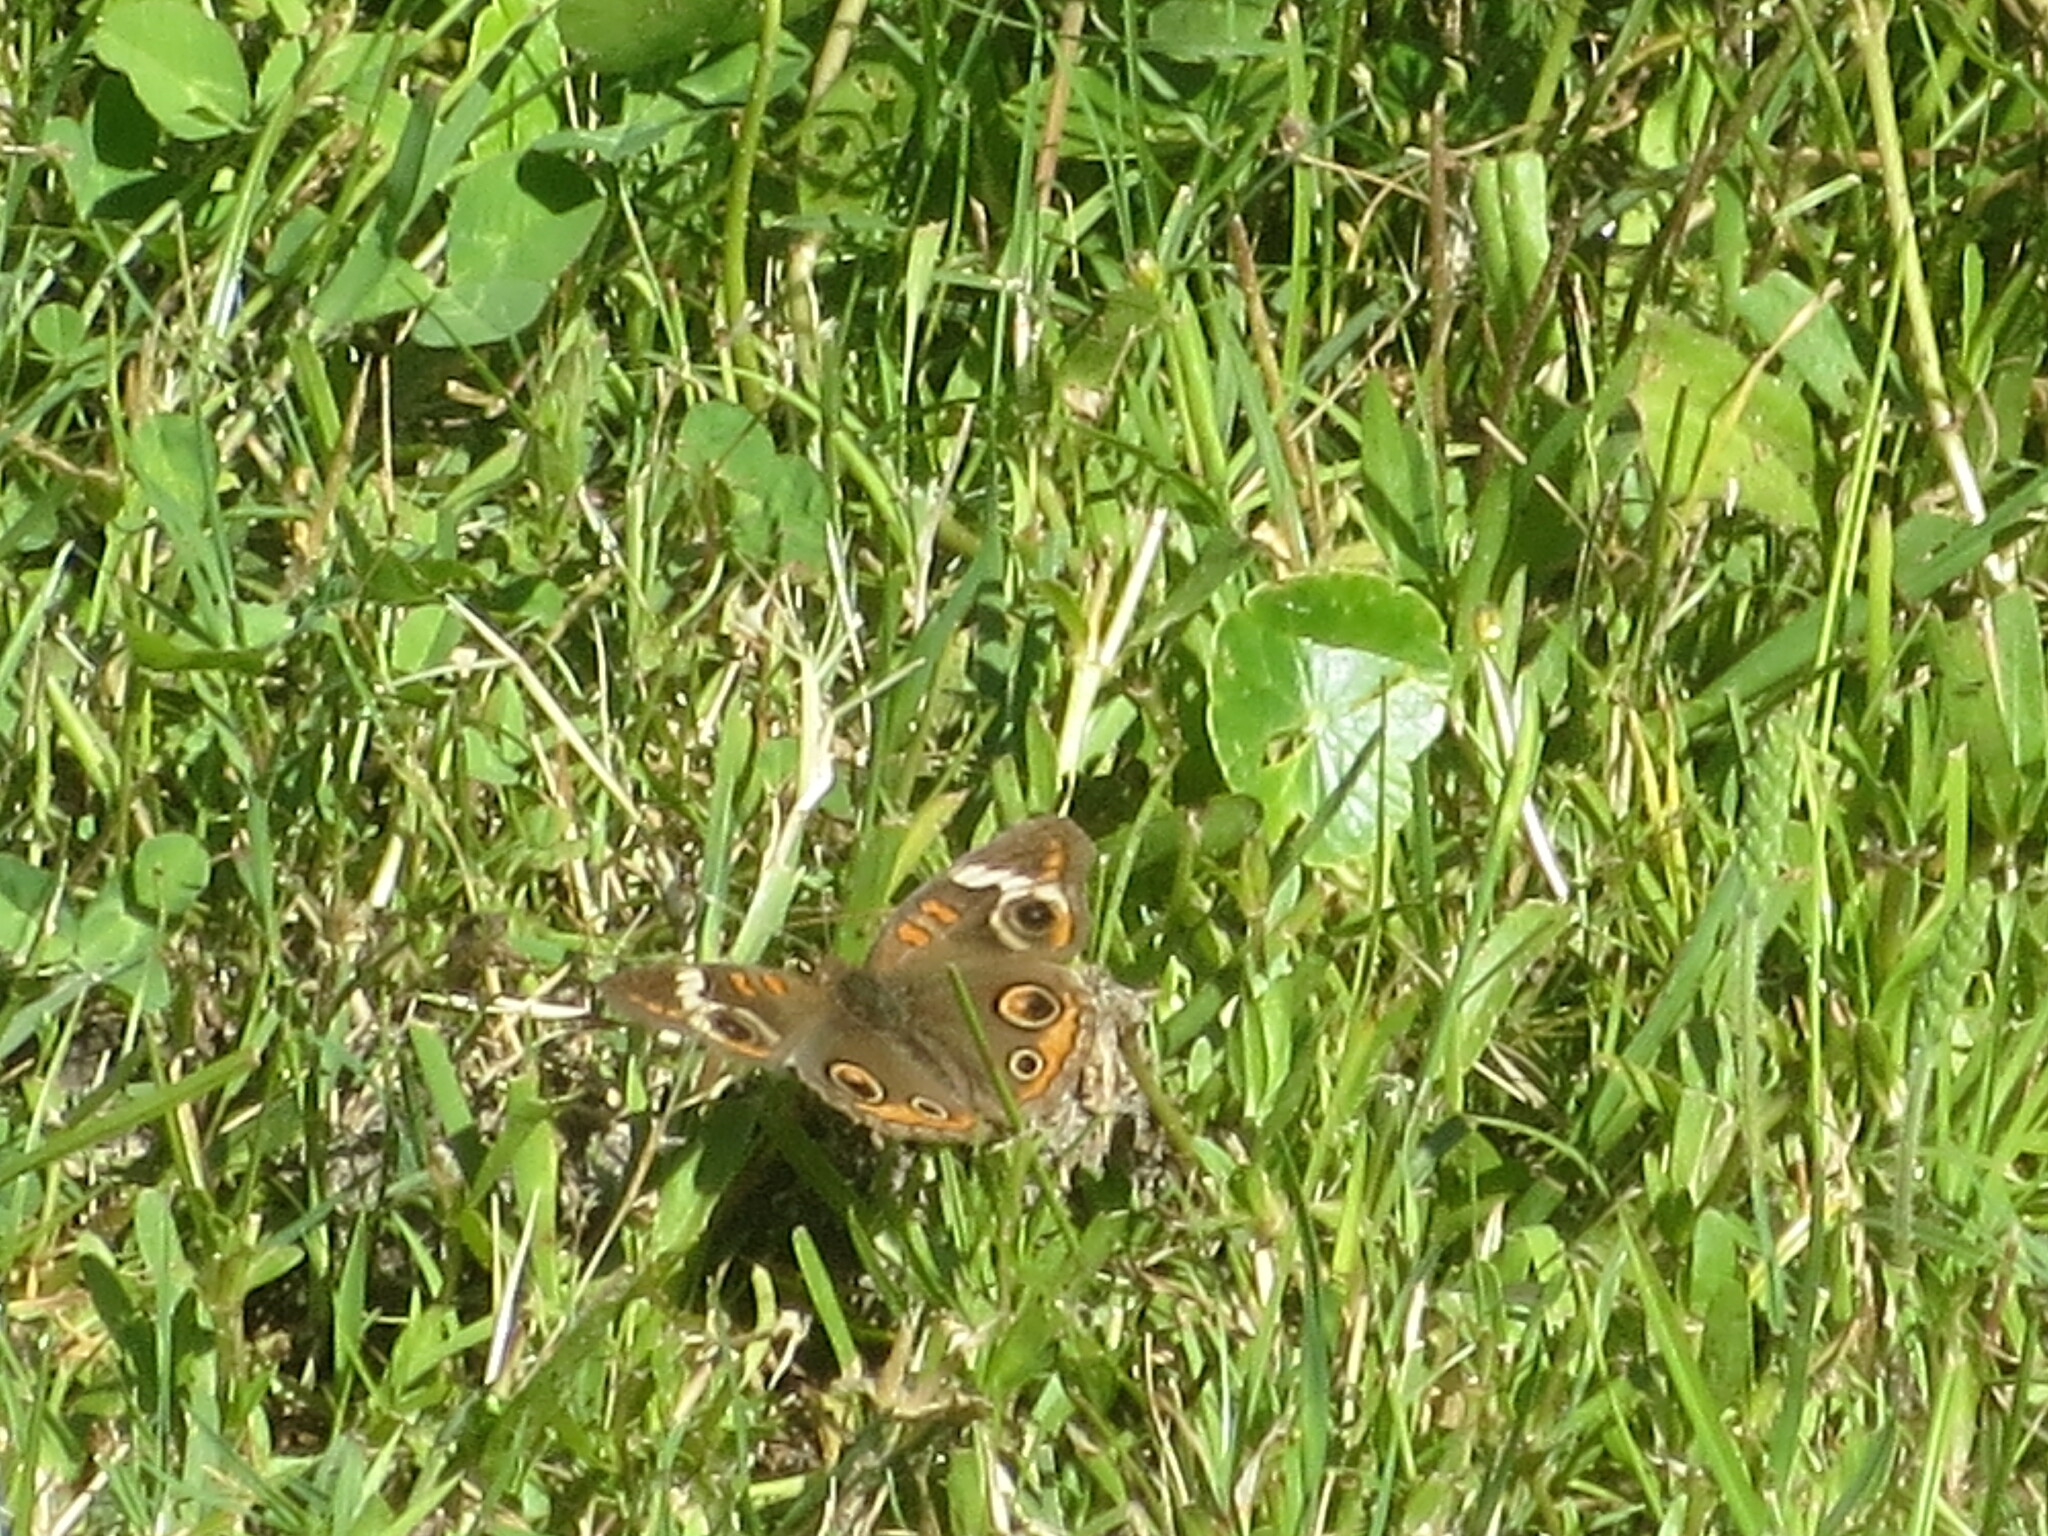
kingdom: Animalia
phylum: Arthropoda
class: Insecta
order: Lepidoptera
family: Nymphalidae
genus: Junonia
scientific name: Junonia coenia
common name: Common buckeye
